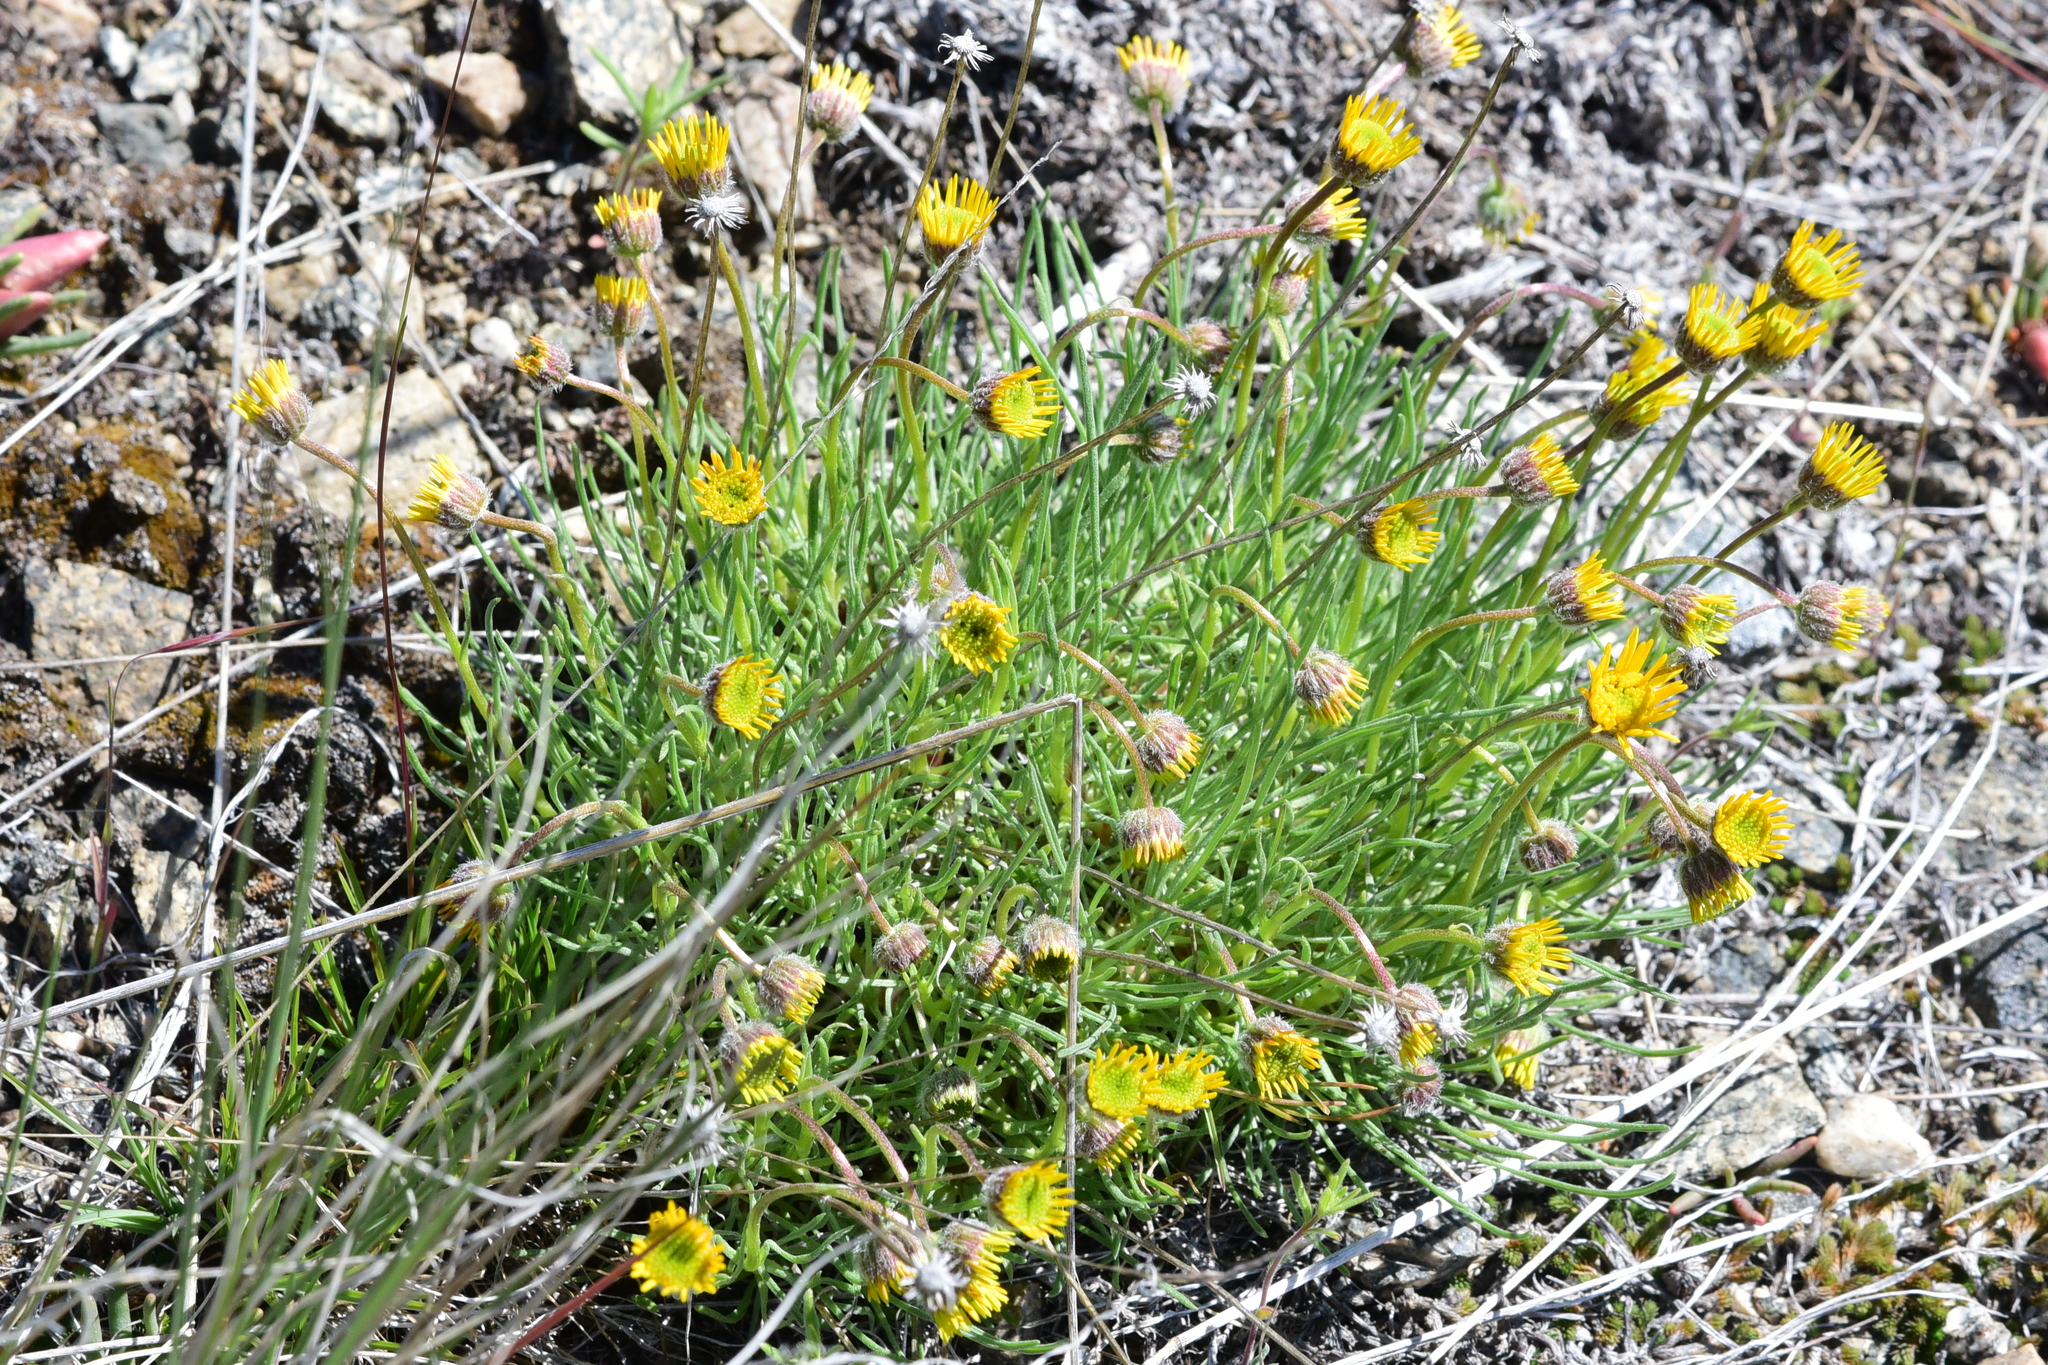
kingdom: Plantae
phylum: Tracheophyta
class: Magnoliopsida
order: Asterales
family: Asteraceae
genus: Erigeron
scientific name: Erigeron linearis
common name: Desert yellow fleabane
